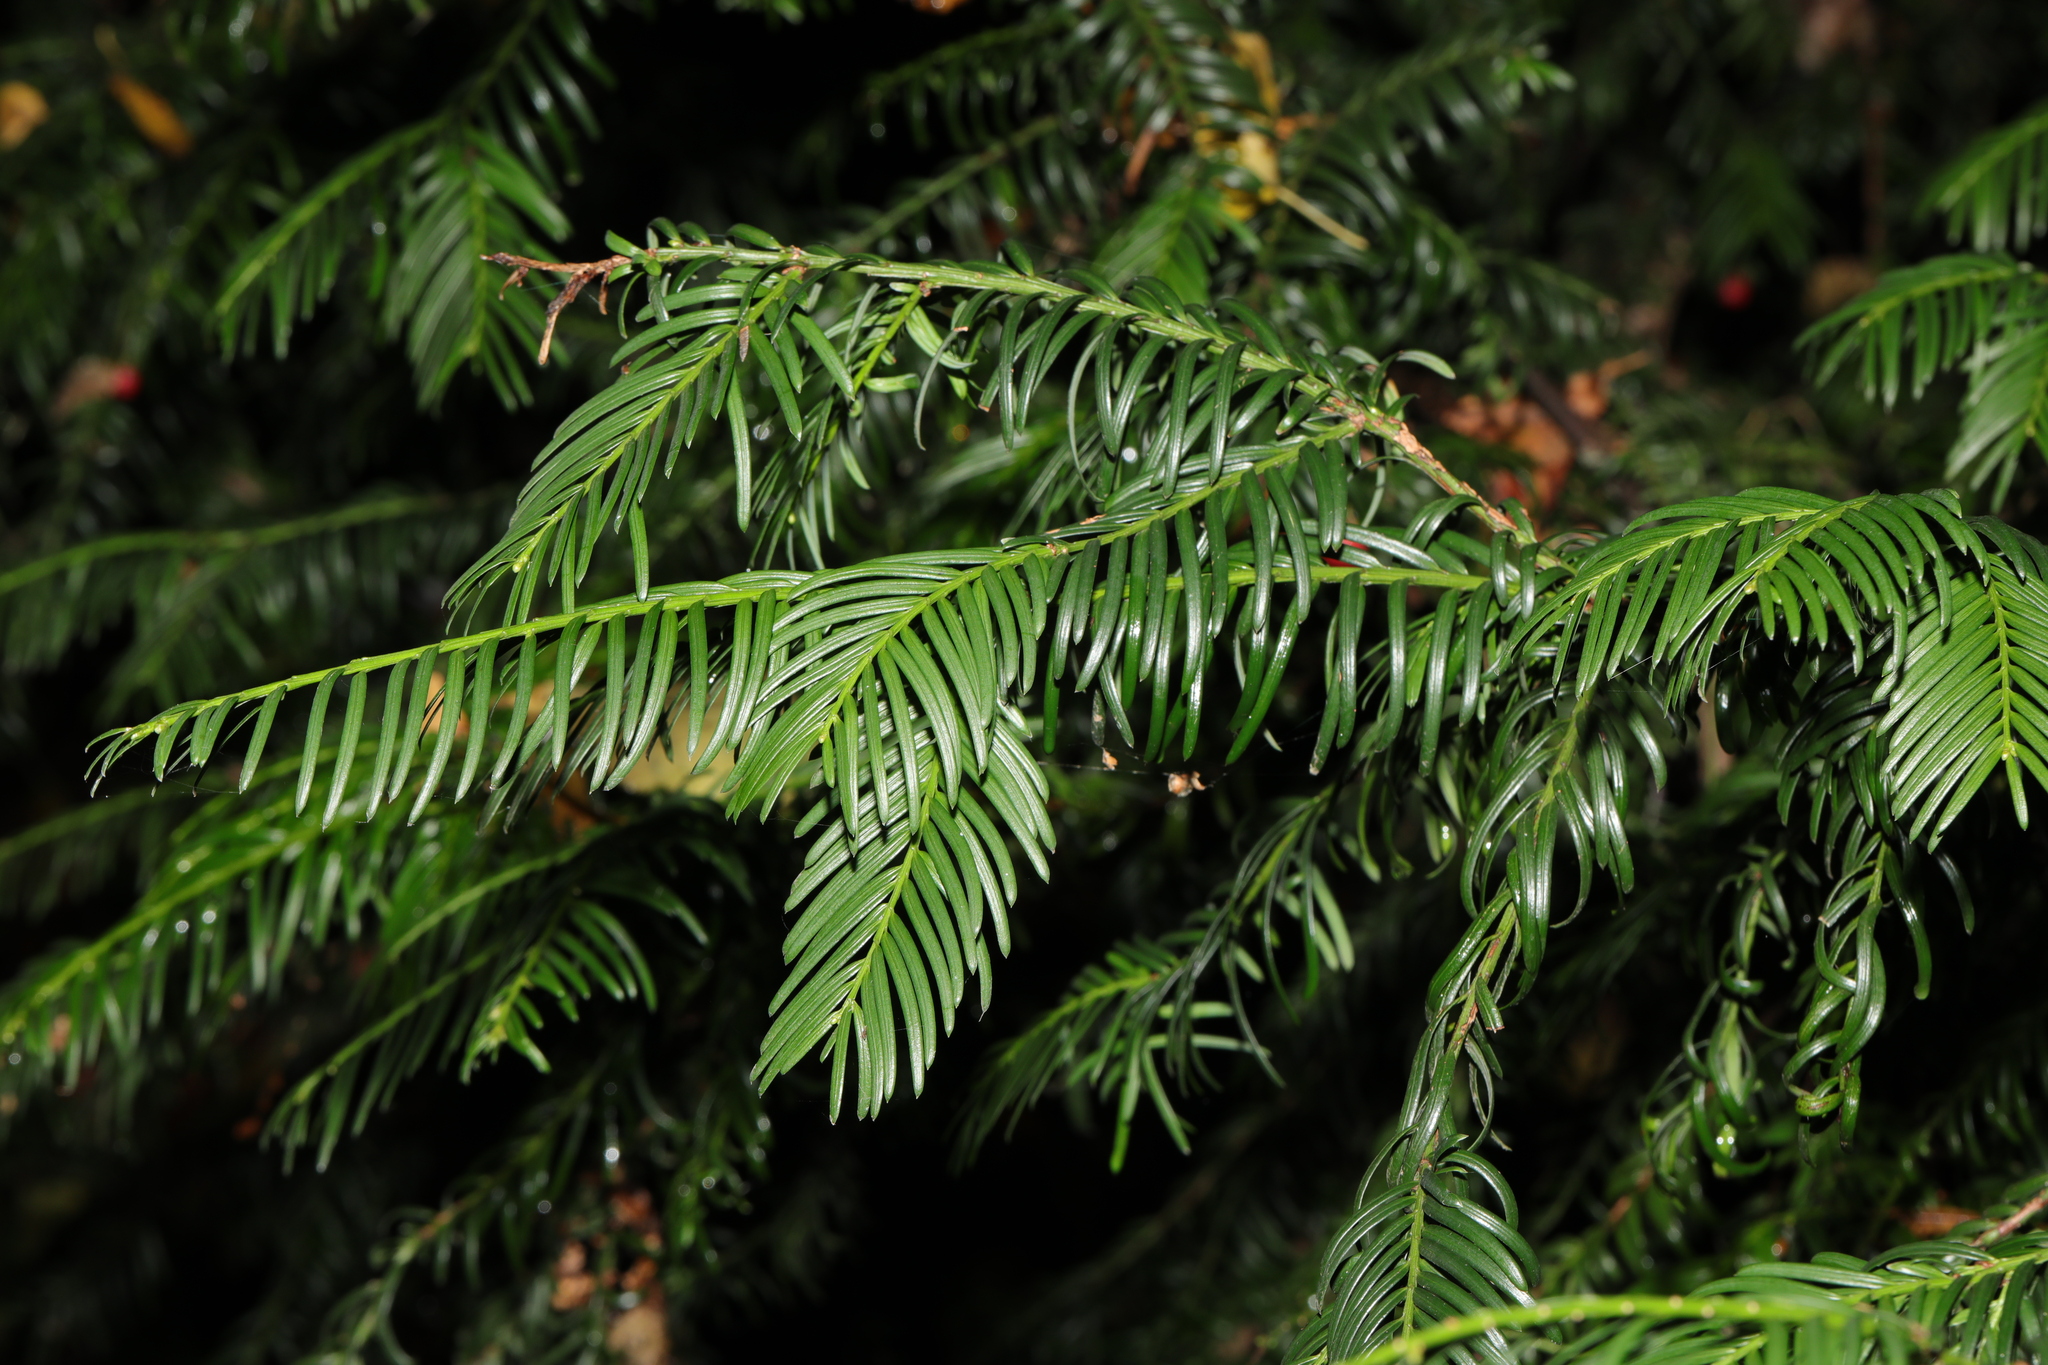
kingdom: Plantae
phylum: Tracheophyta
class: Pinopsida
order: Pinales
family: Taxaceae
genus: Taxus
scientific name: Taxus baccata
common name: Yew
